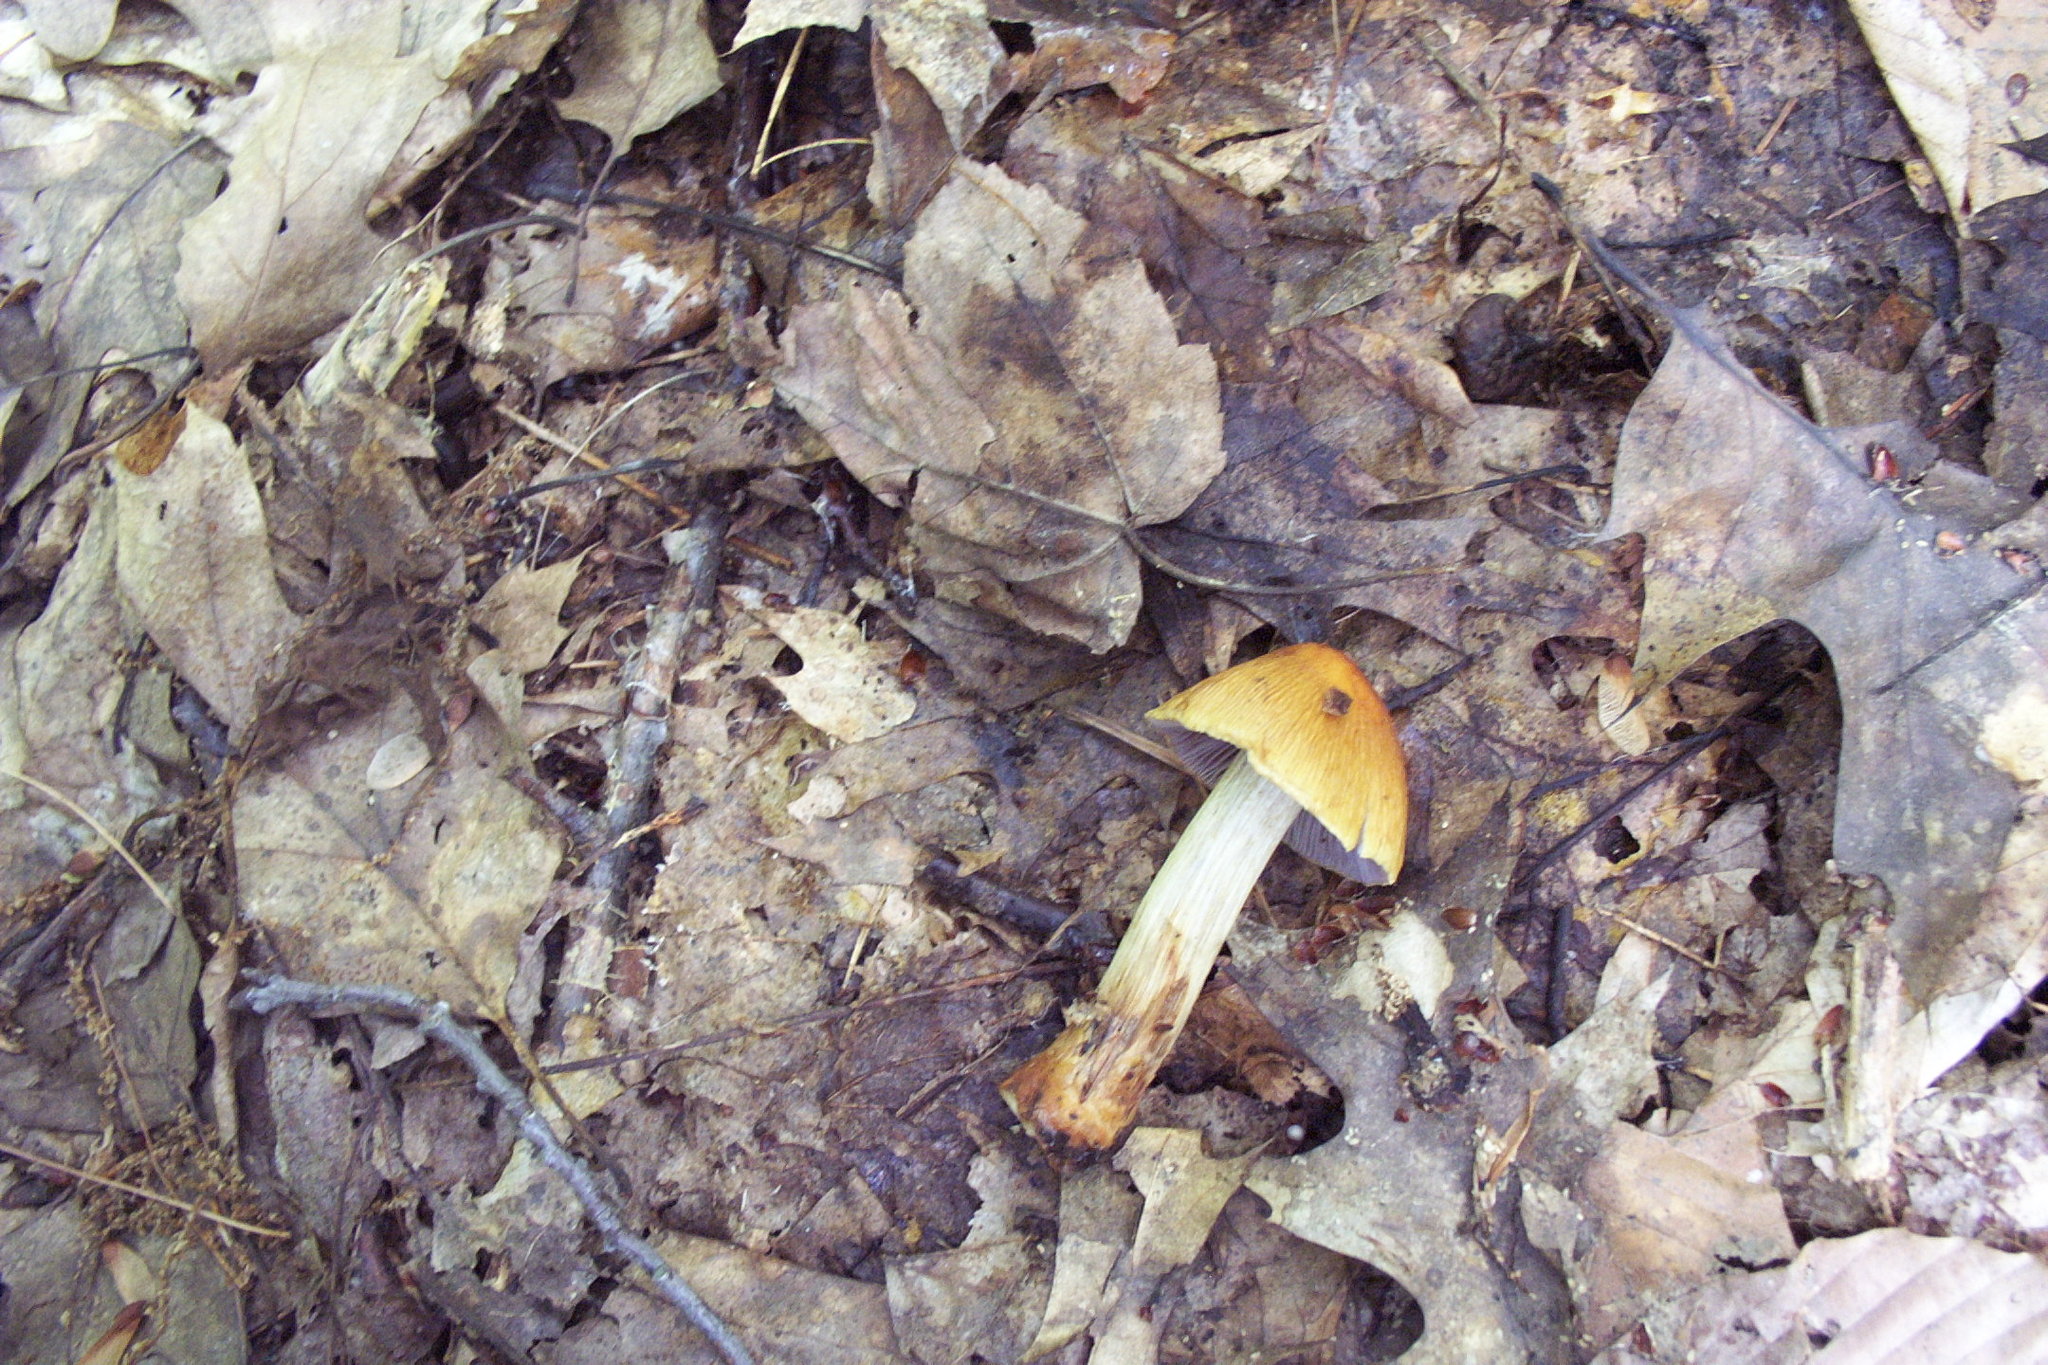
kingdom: Fungi
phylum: Basidiomycota
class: Agaricomycetes
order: Agaricales
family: Cortinariaceae
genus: Cortinarius
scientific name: Cortinarius corrugatus
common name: Wrinkled cortinarius
